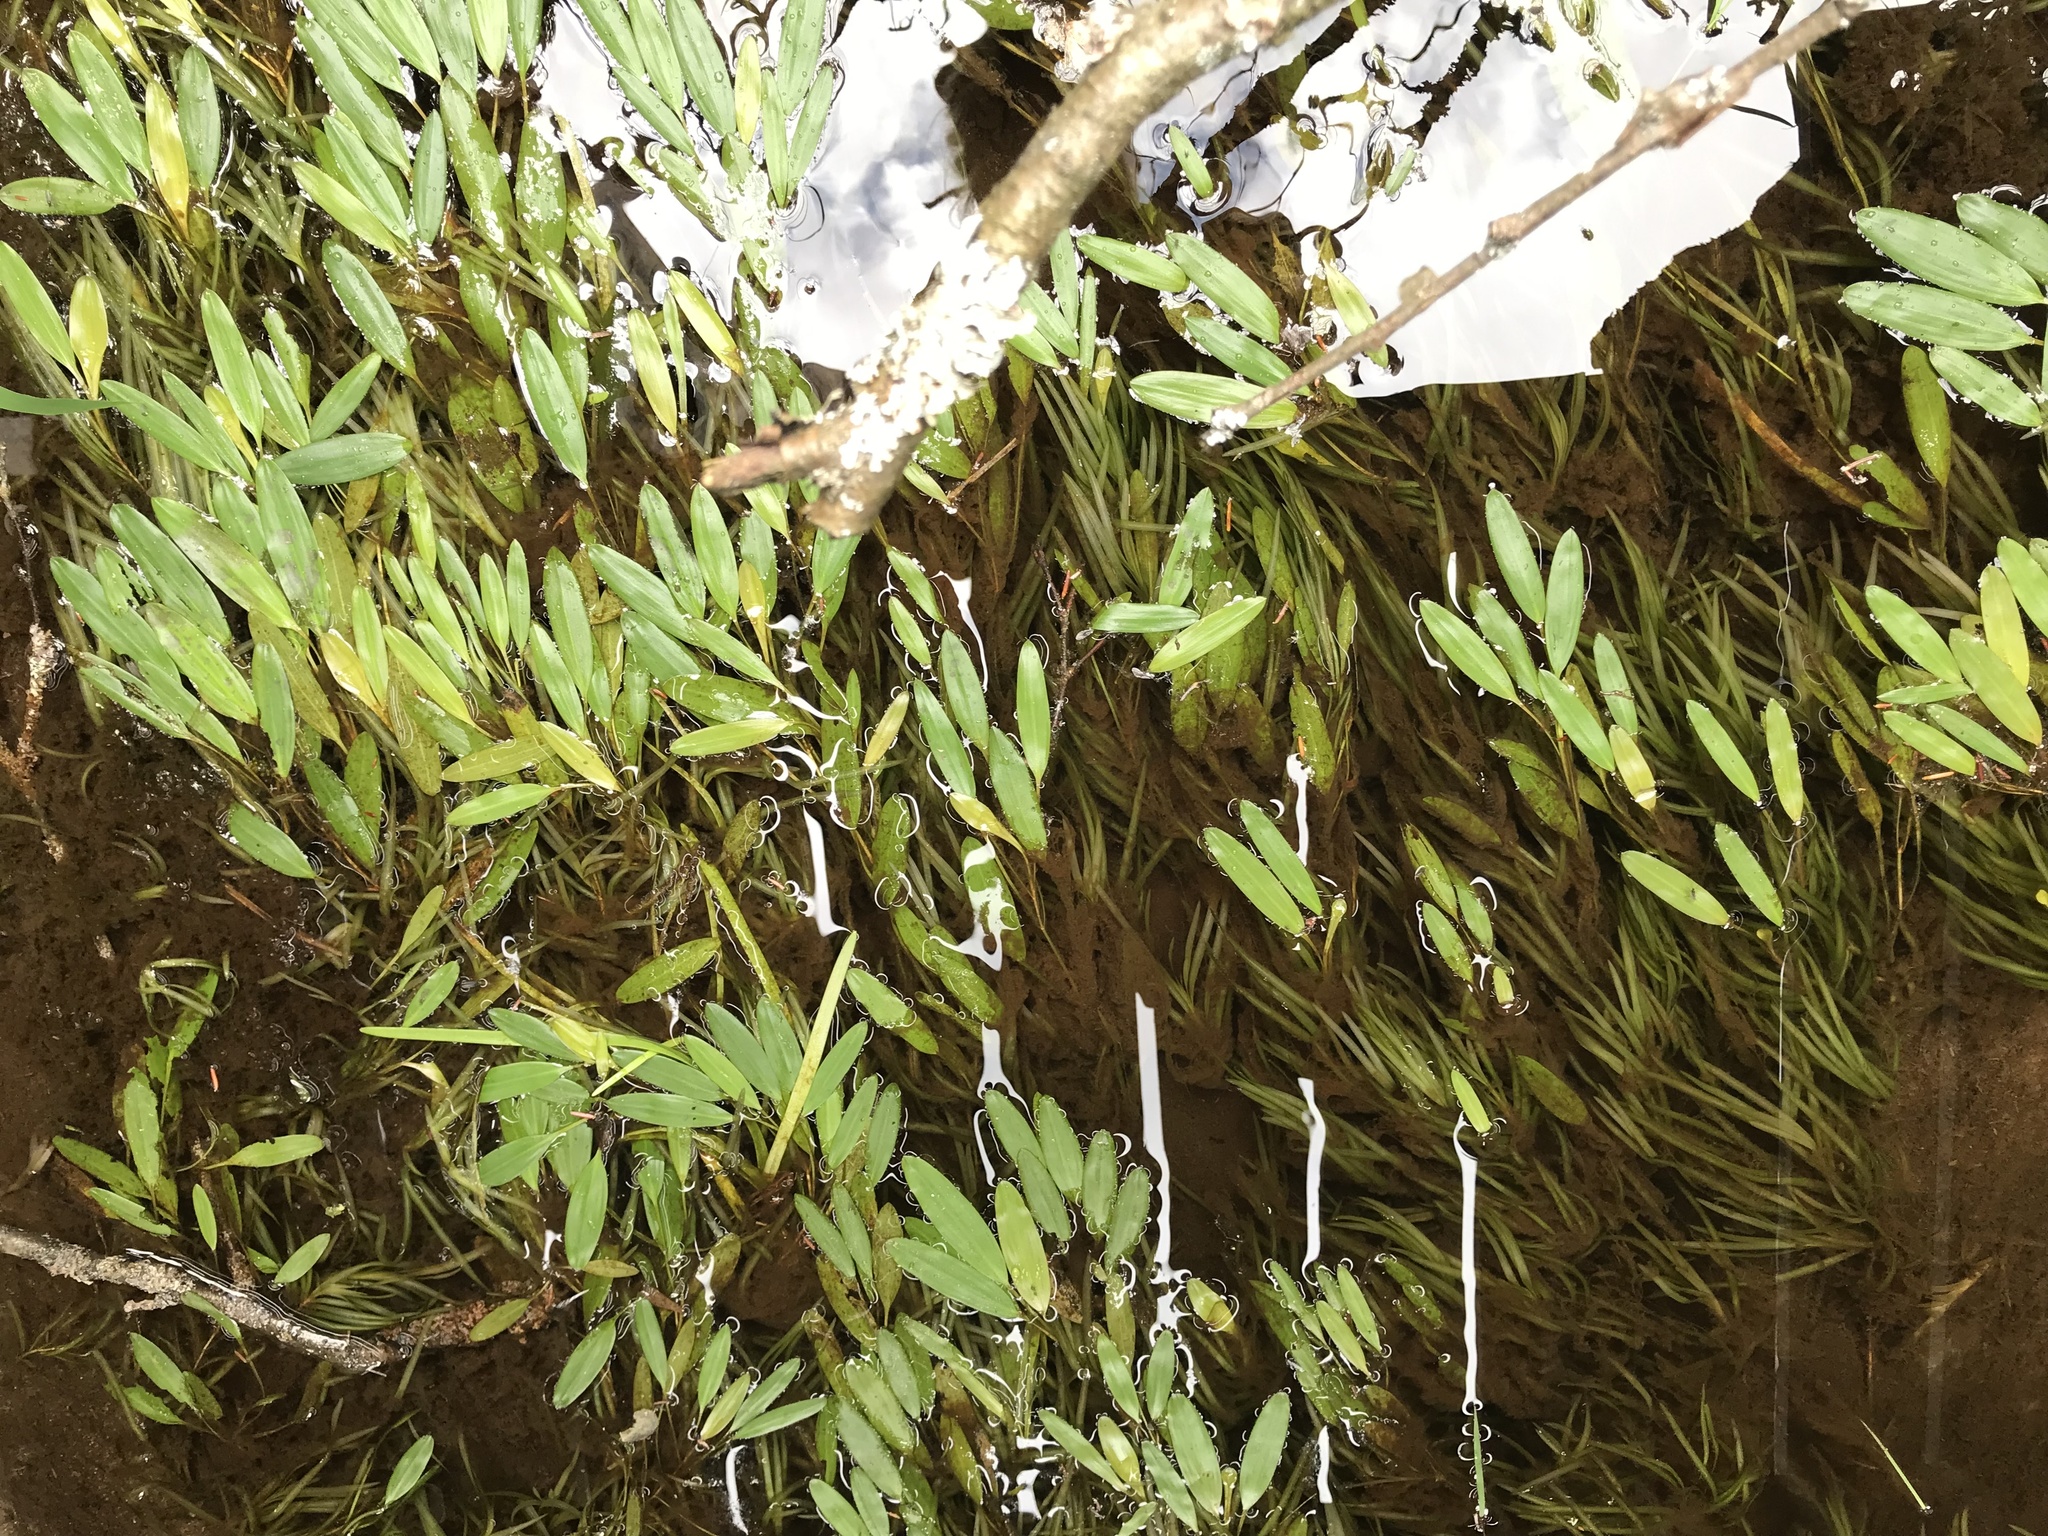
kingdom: Plantae
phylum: Tracheophyta
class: Liliopsida
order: Alismatales
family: Potamogetonaceae
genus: Potamogeton
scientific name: Potamogeton epihydrus
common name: American pondweed
